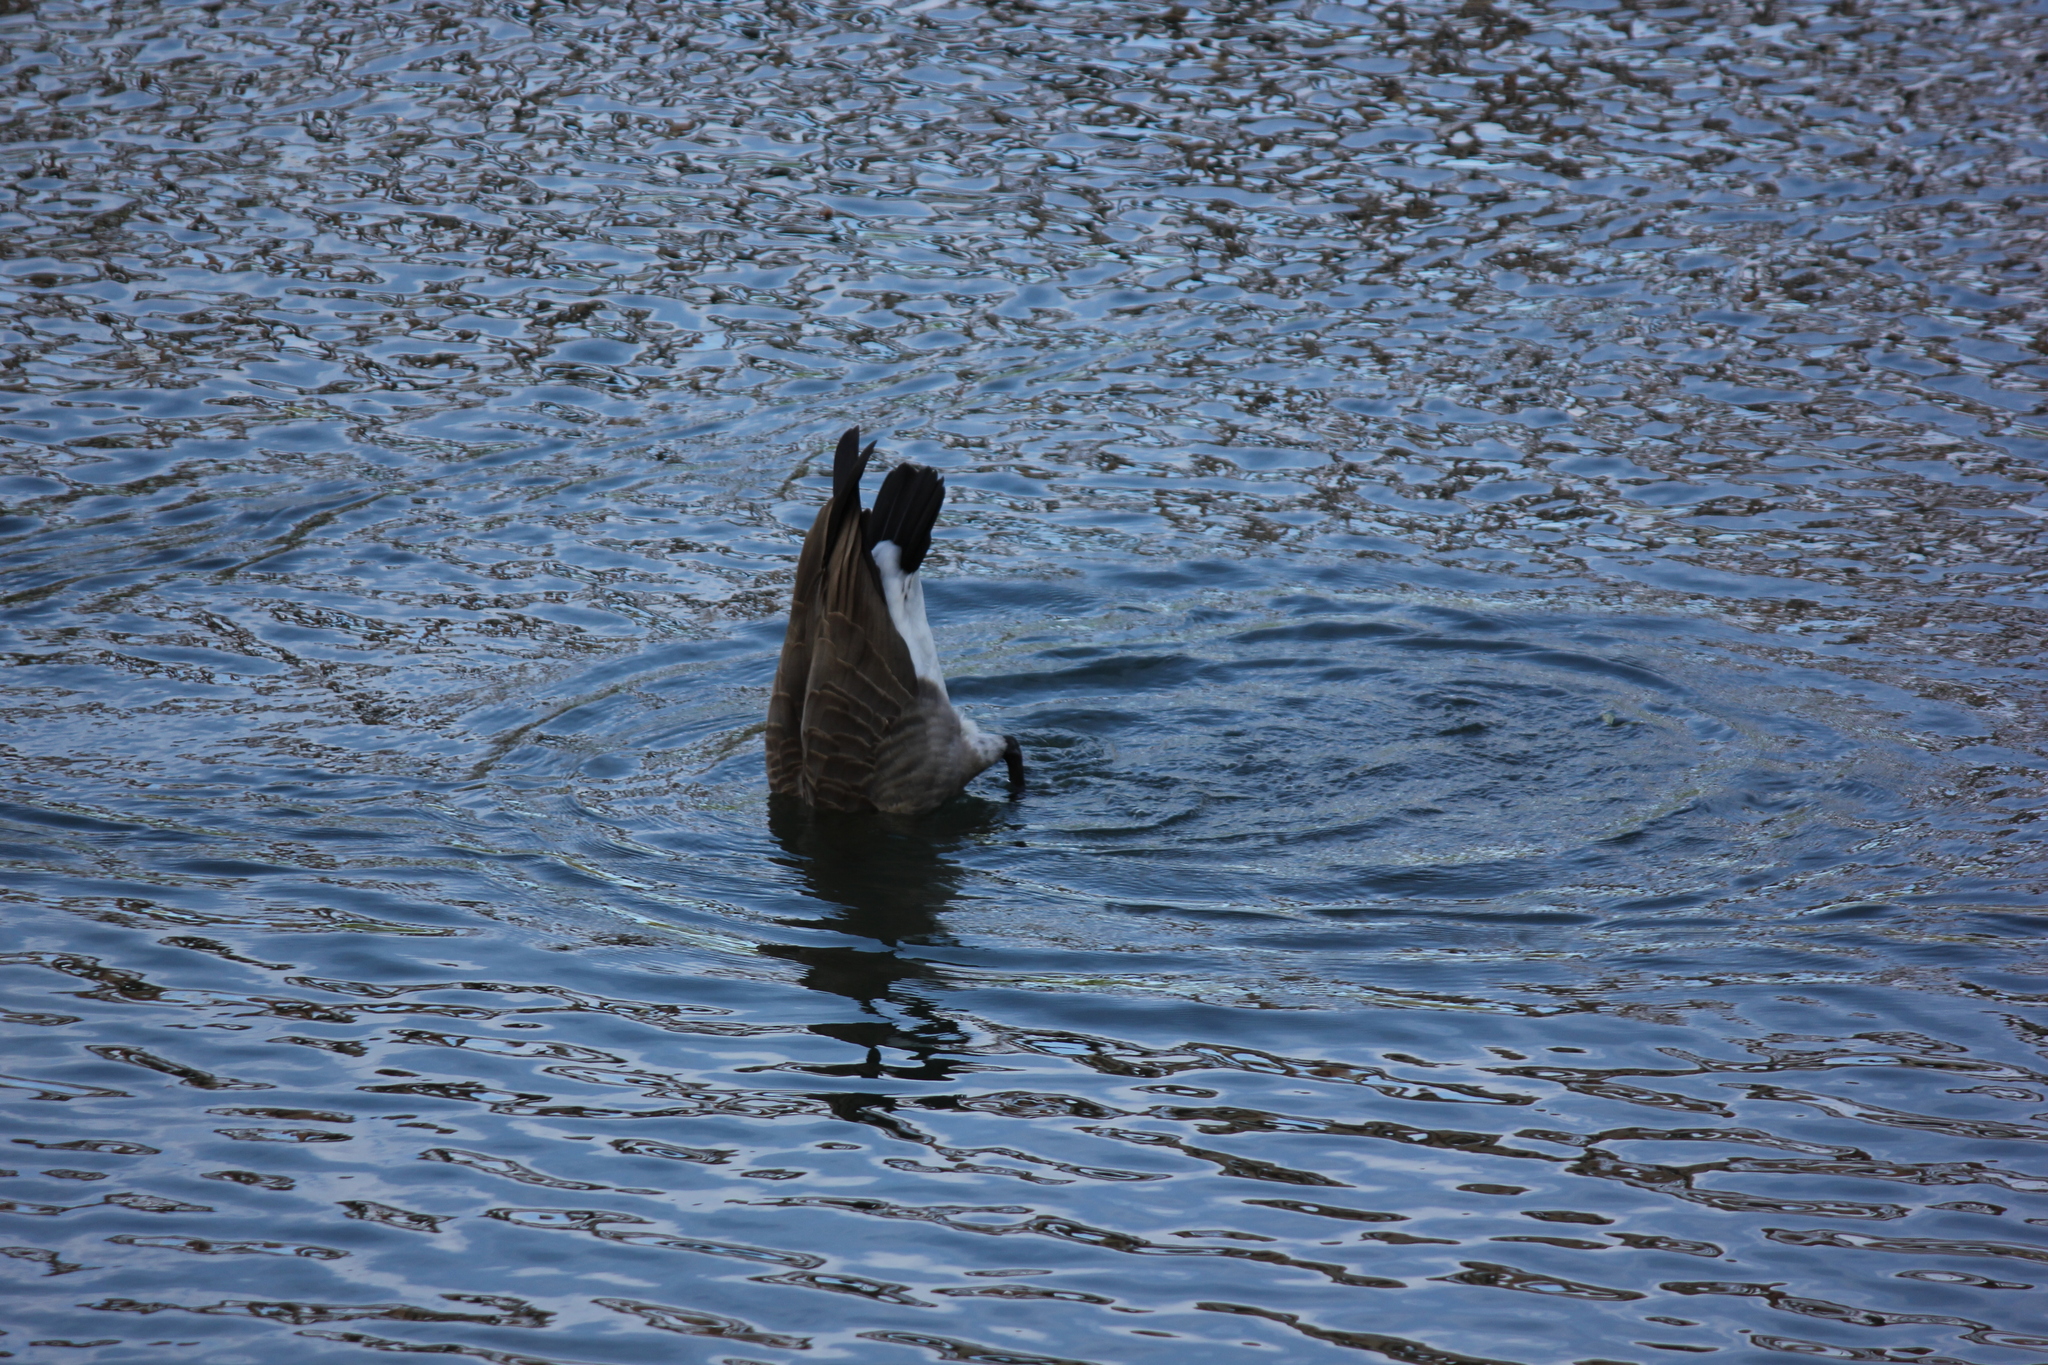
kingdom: Animalia
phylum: Chordata
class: Aves
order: Anseriformes
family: Anatidae
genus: Branta
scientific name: Branta canadensis
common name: Canada goose
